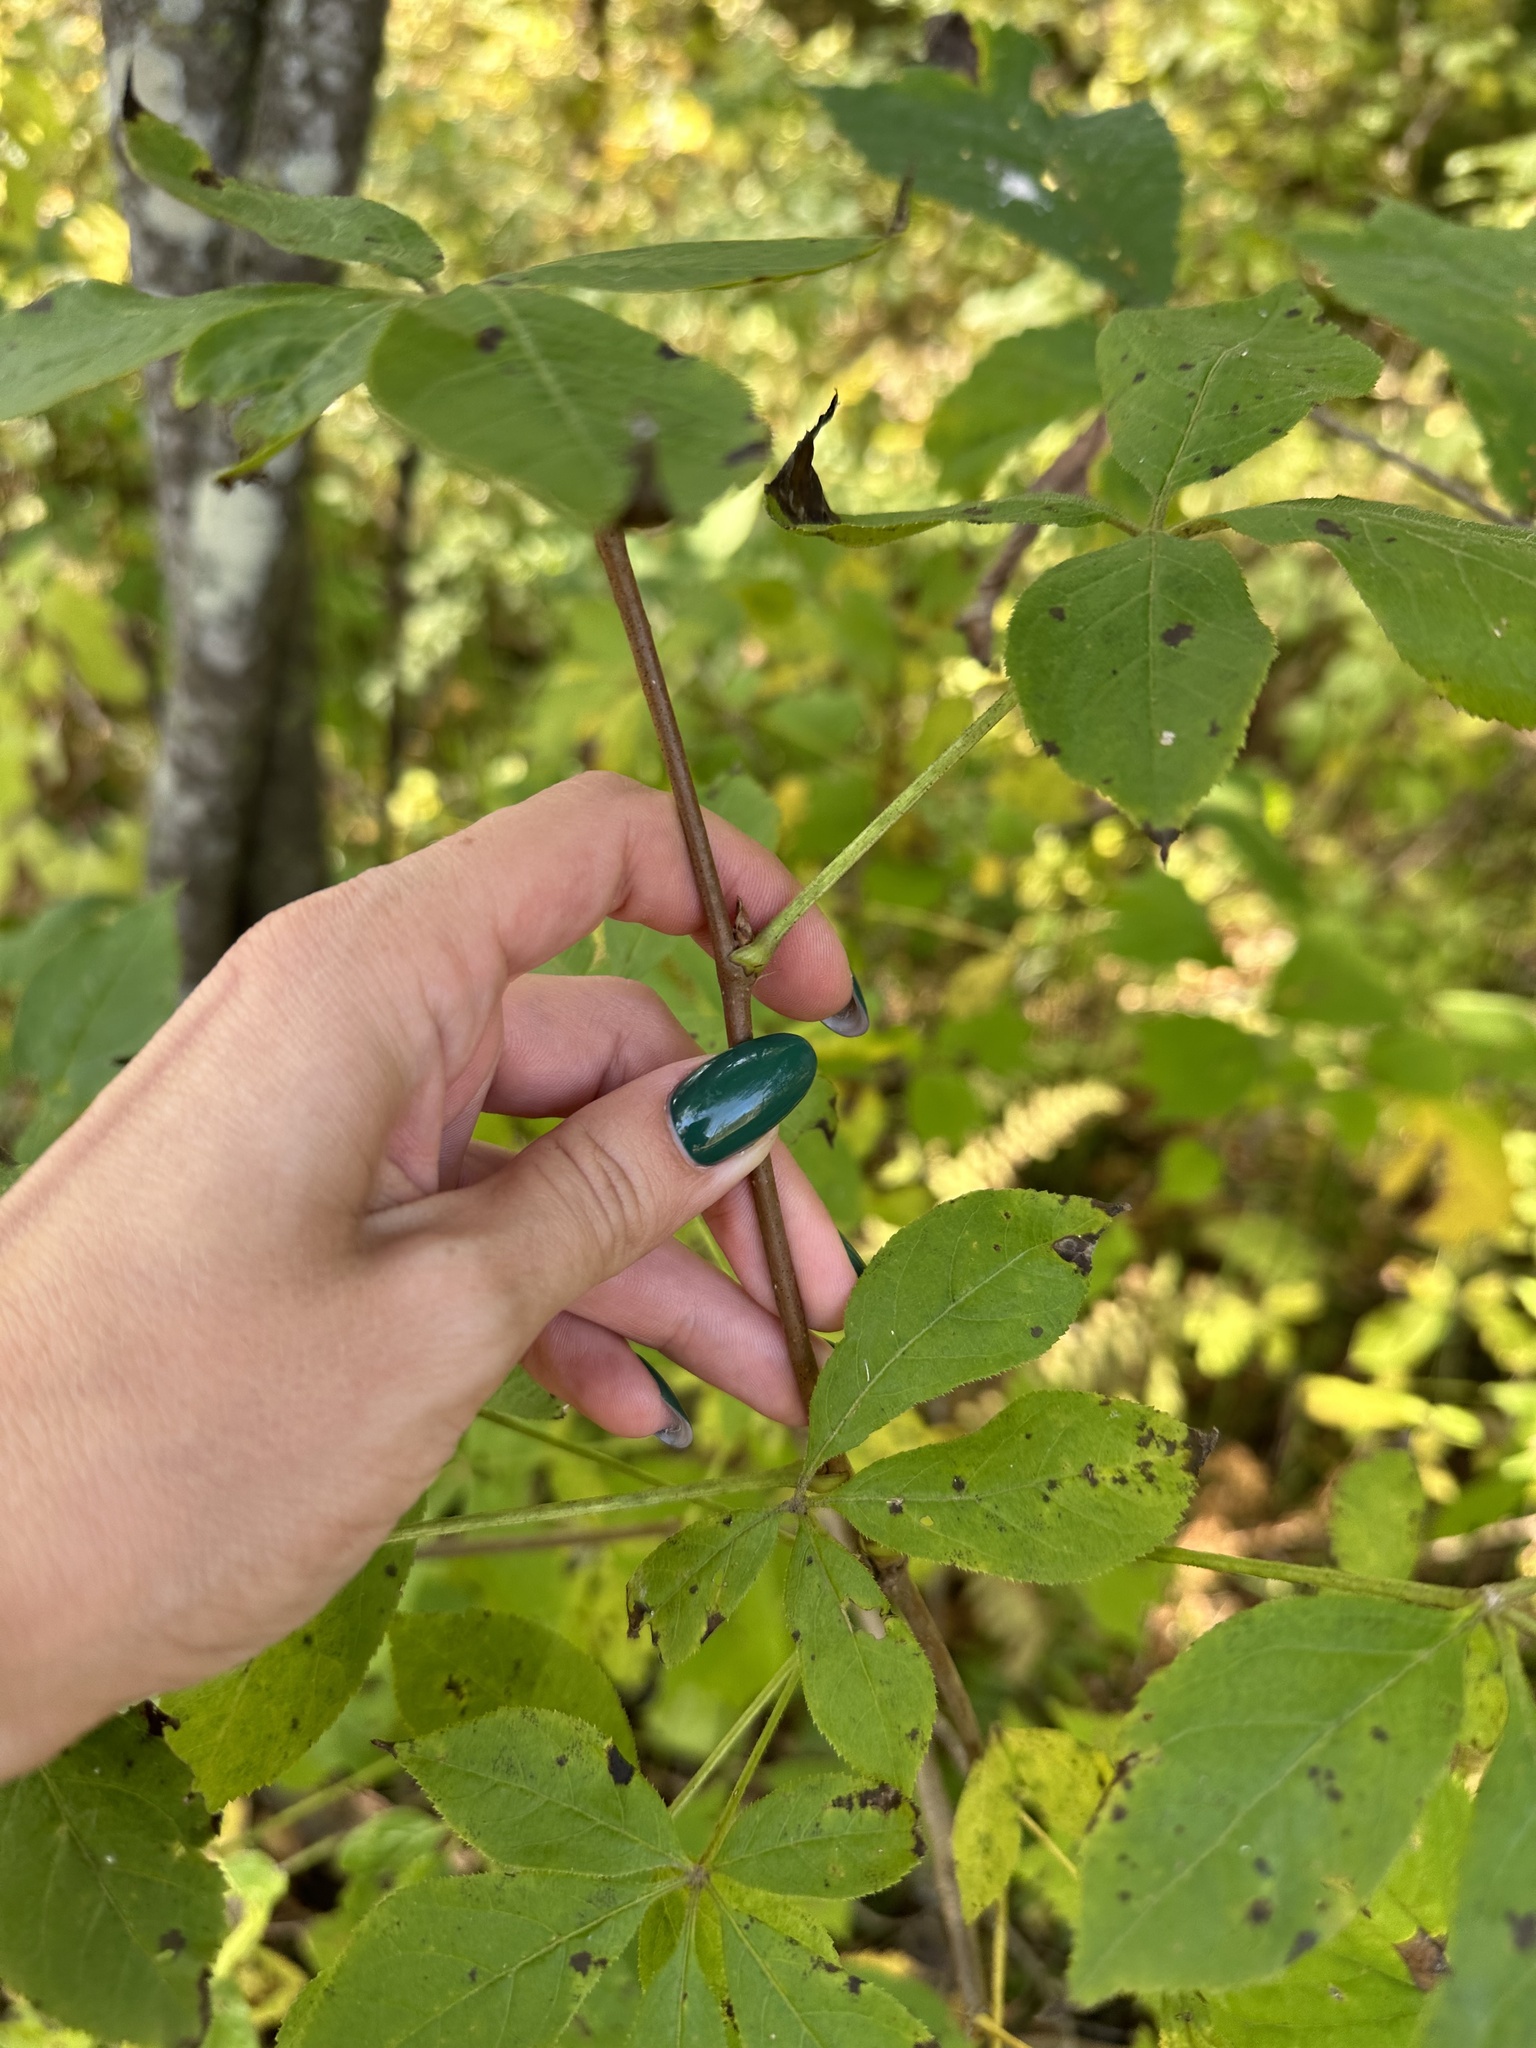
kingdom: Plantae
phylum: Tracheophyta
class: Magnoliopsida
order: Apiales
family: Araliaceae
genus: Eleutherococcus
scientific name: Eleutherococcus sessiliflorus
